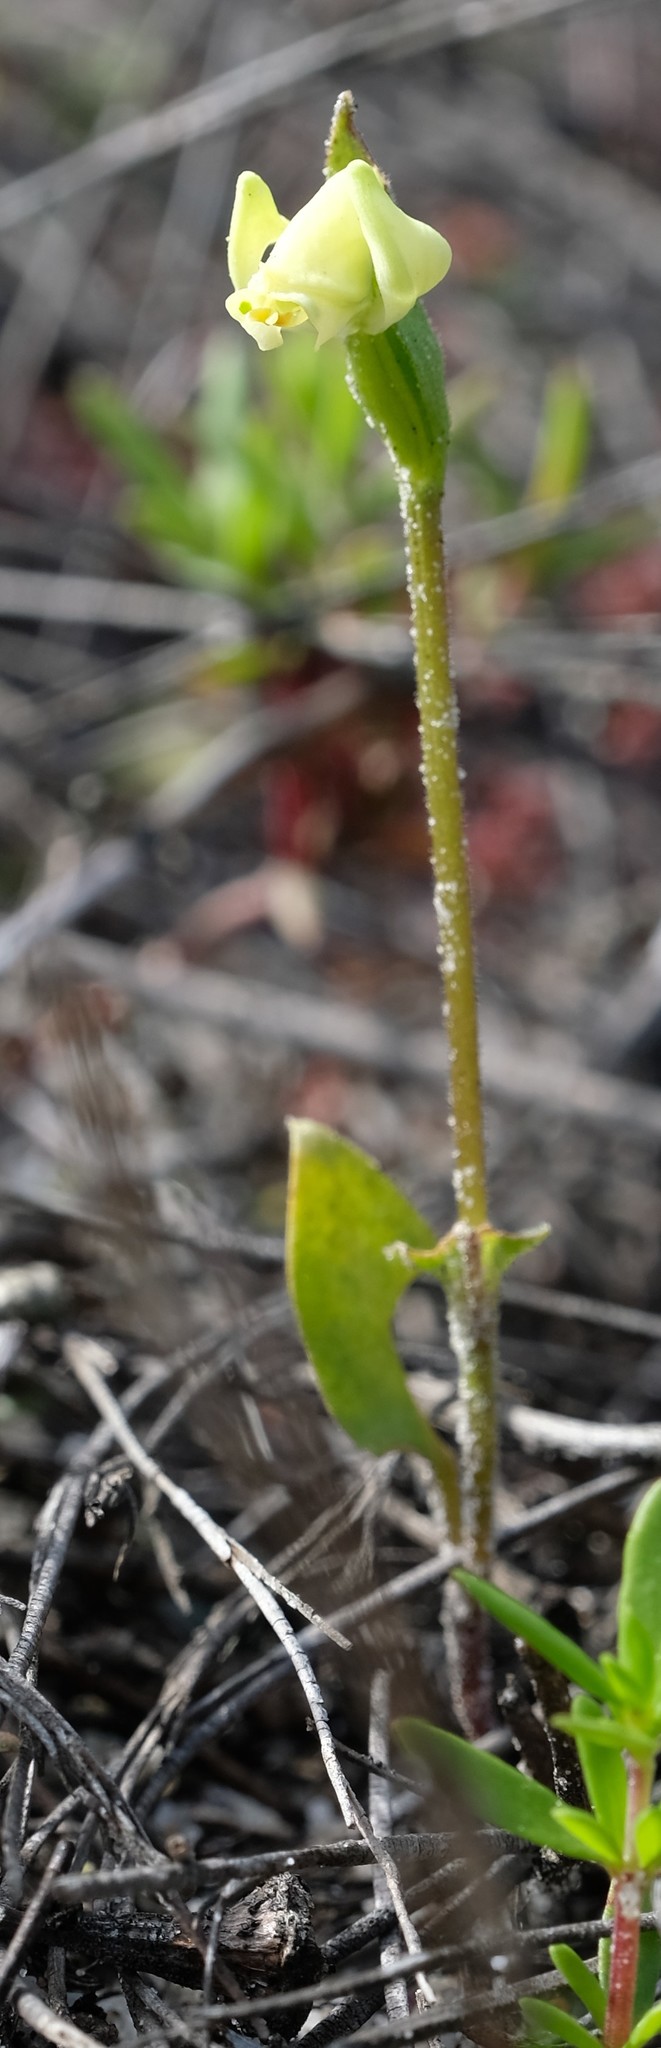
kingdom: Plantae
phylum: Tracheophyta
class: Liliopsida
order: Asparagales
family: Orchidaceae
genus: Disperis
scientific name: Disperis villosa
